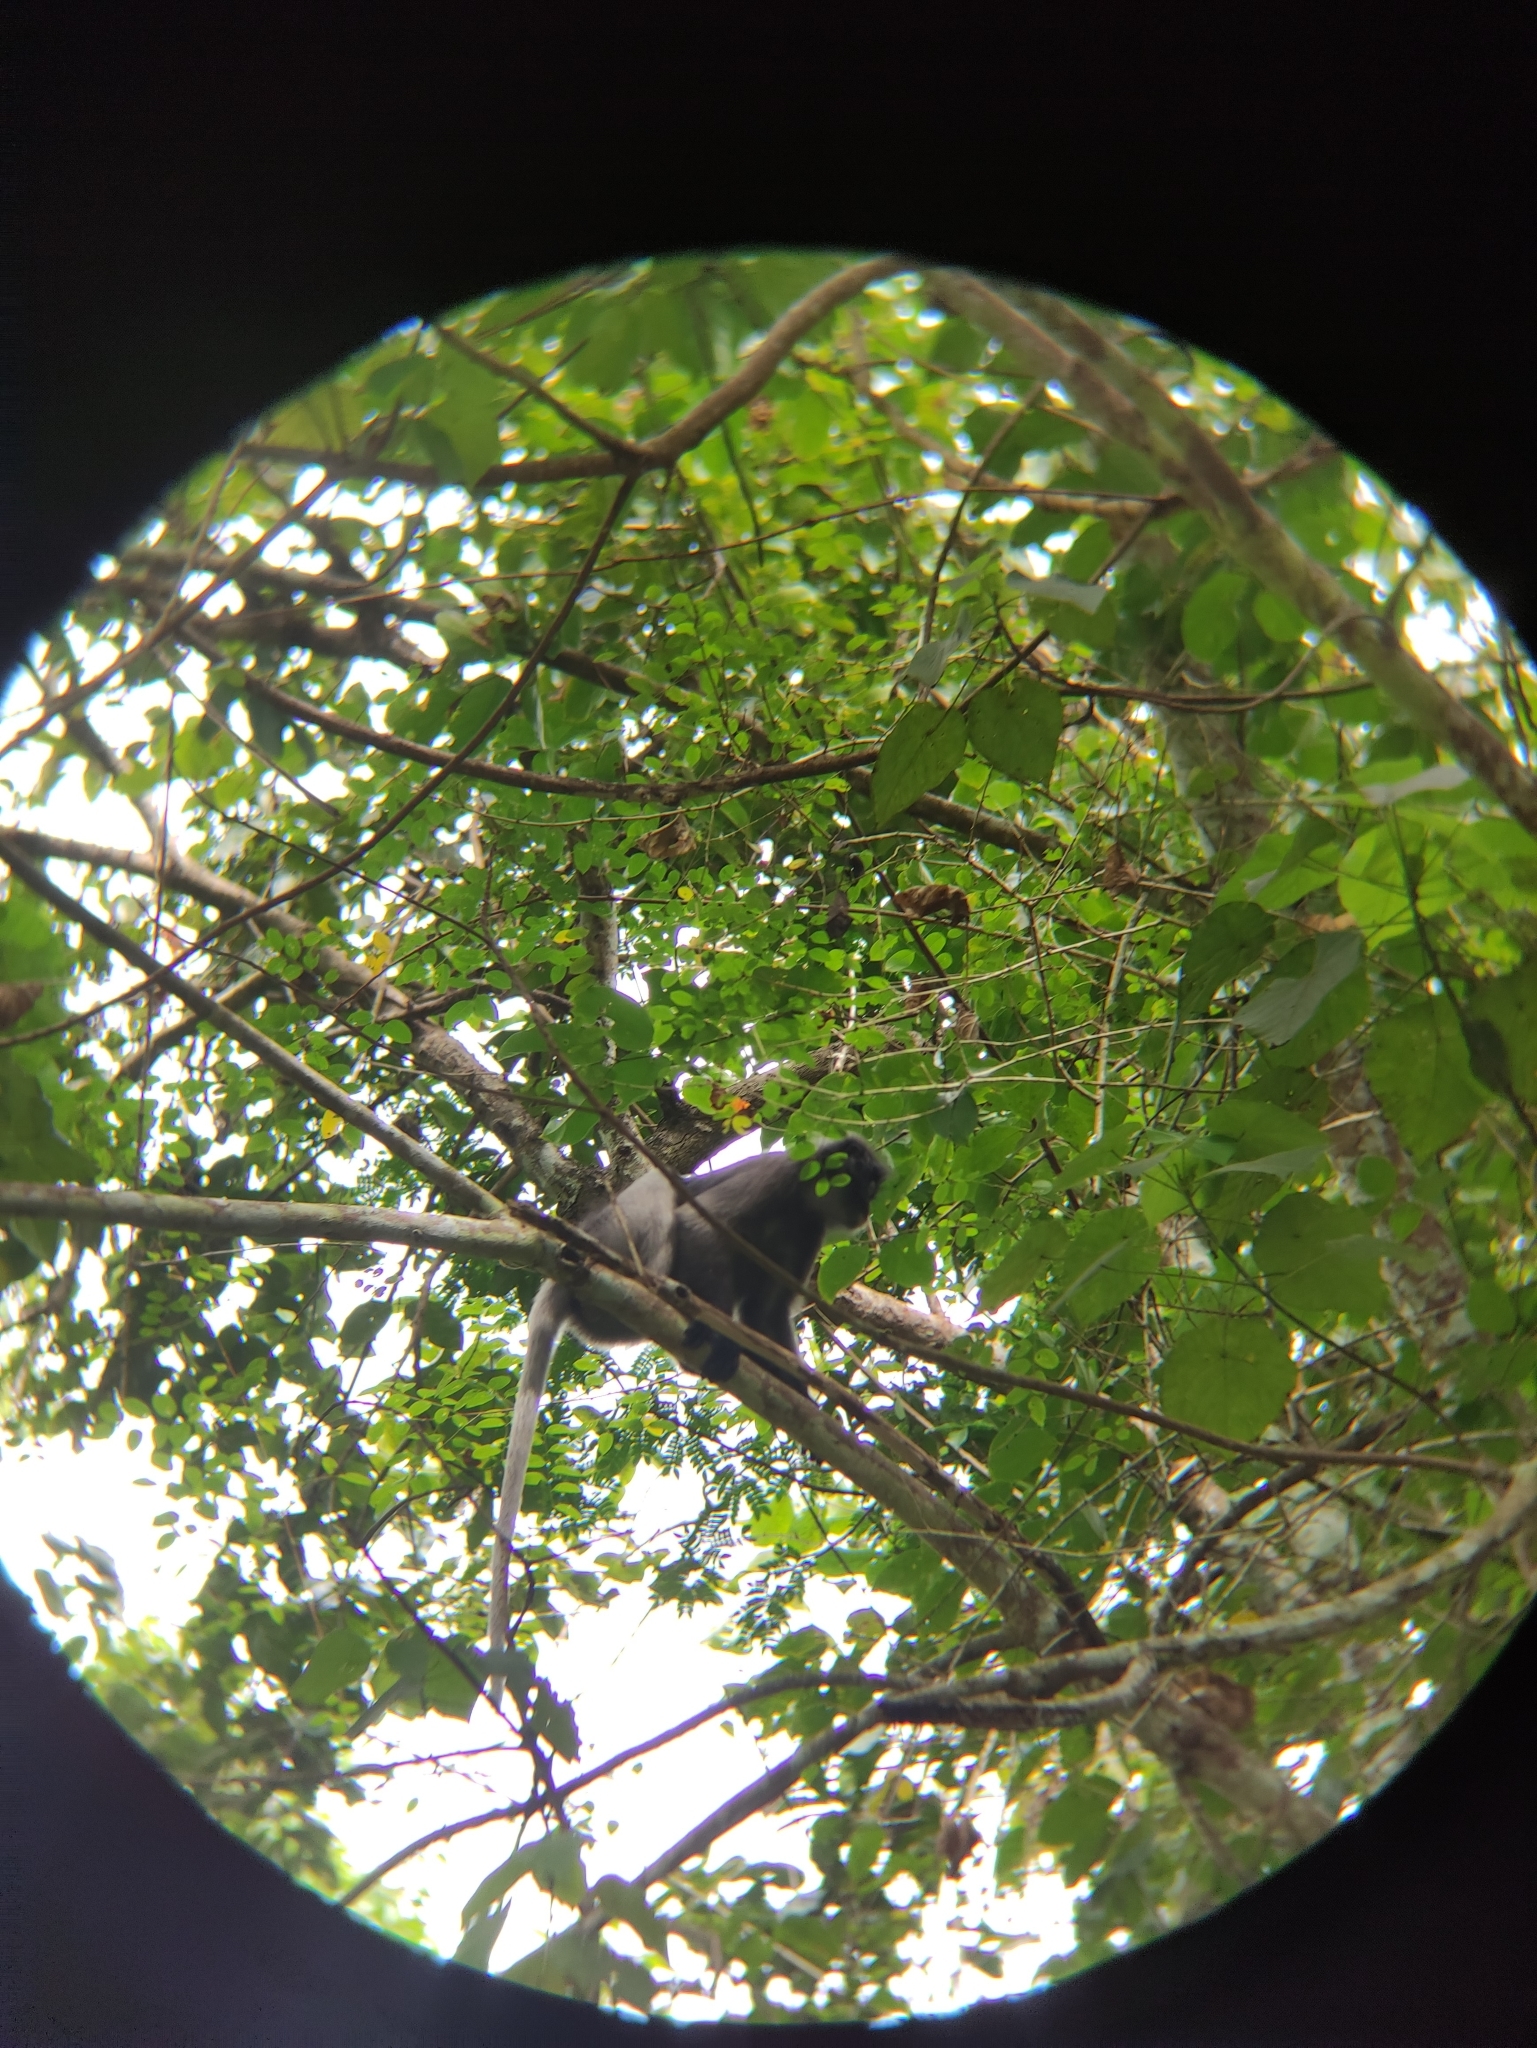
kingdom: Animalia
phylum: Chordata
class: Mammalia
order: Primates
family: Cercopithecidae
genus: Trachypithecus
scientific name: Trachypithecus obscurus
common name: Dusky leaf-monkey
